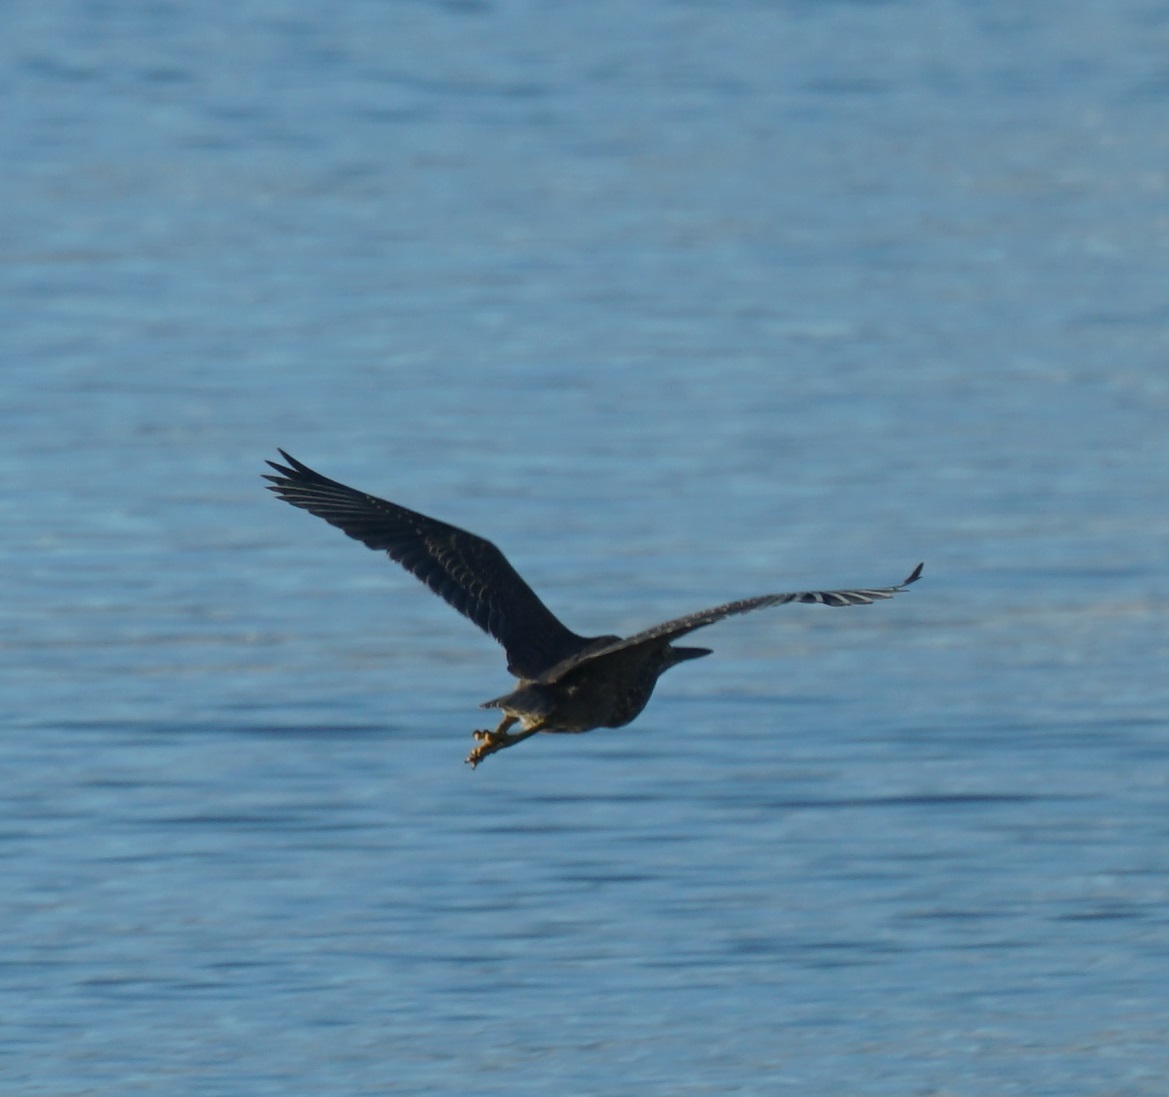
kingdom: Animalia
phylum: Chordata
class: Aves
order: Pelecaniformes
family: Ardeidae
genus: Butorides
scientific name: Butorides striata
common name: Striated heron
